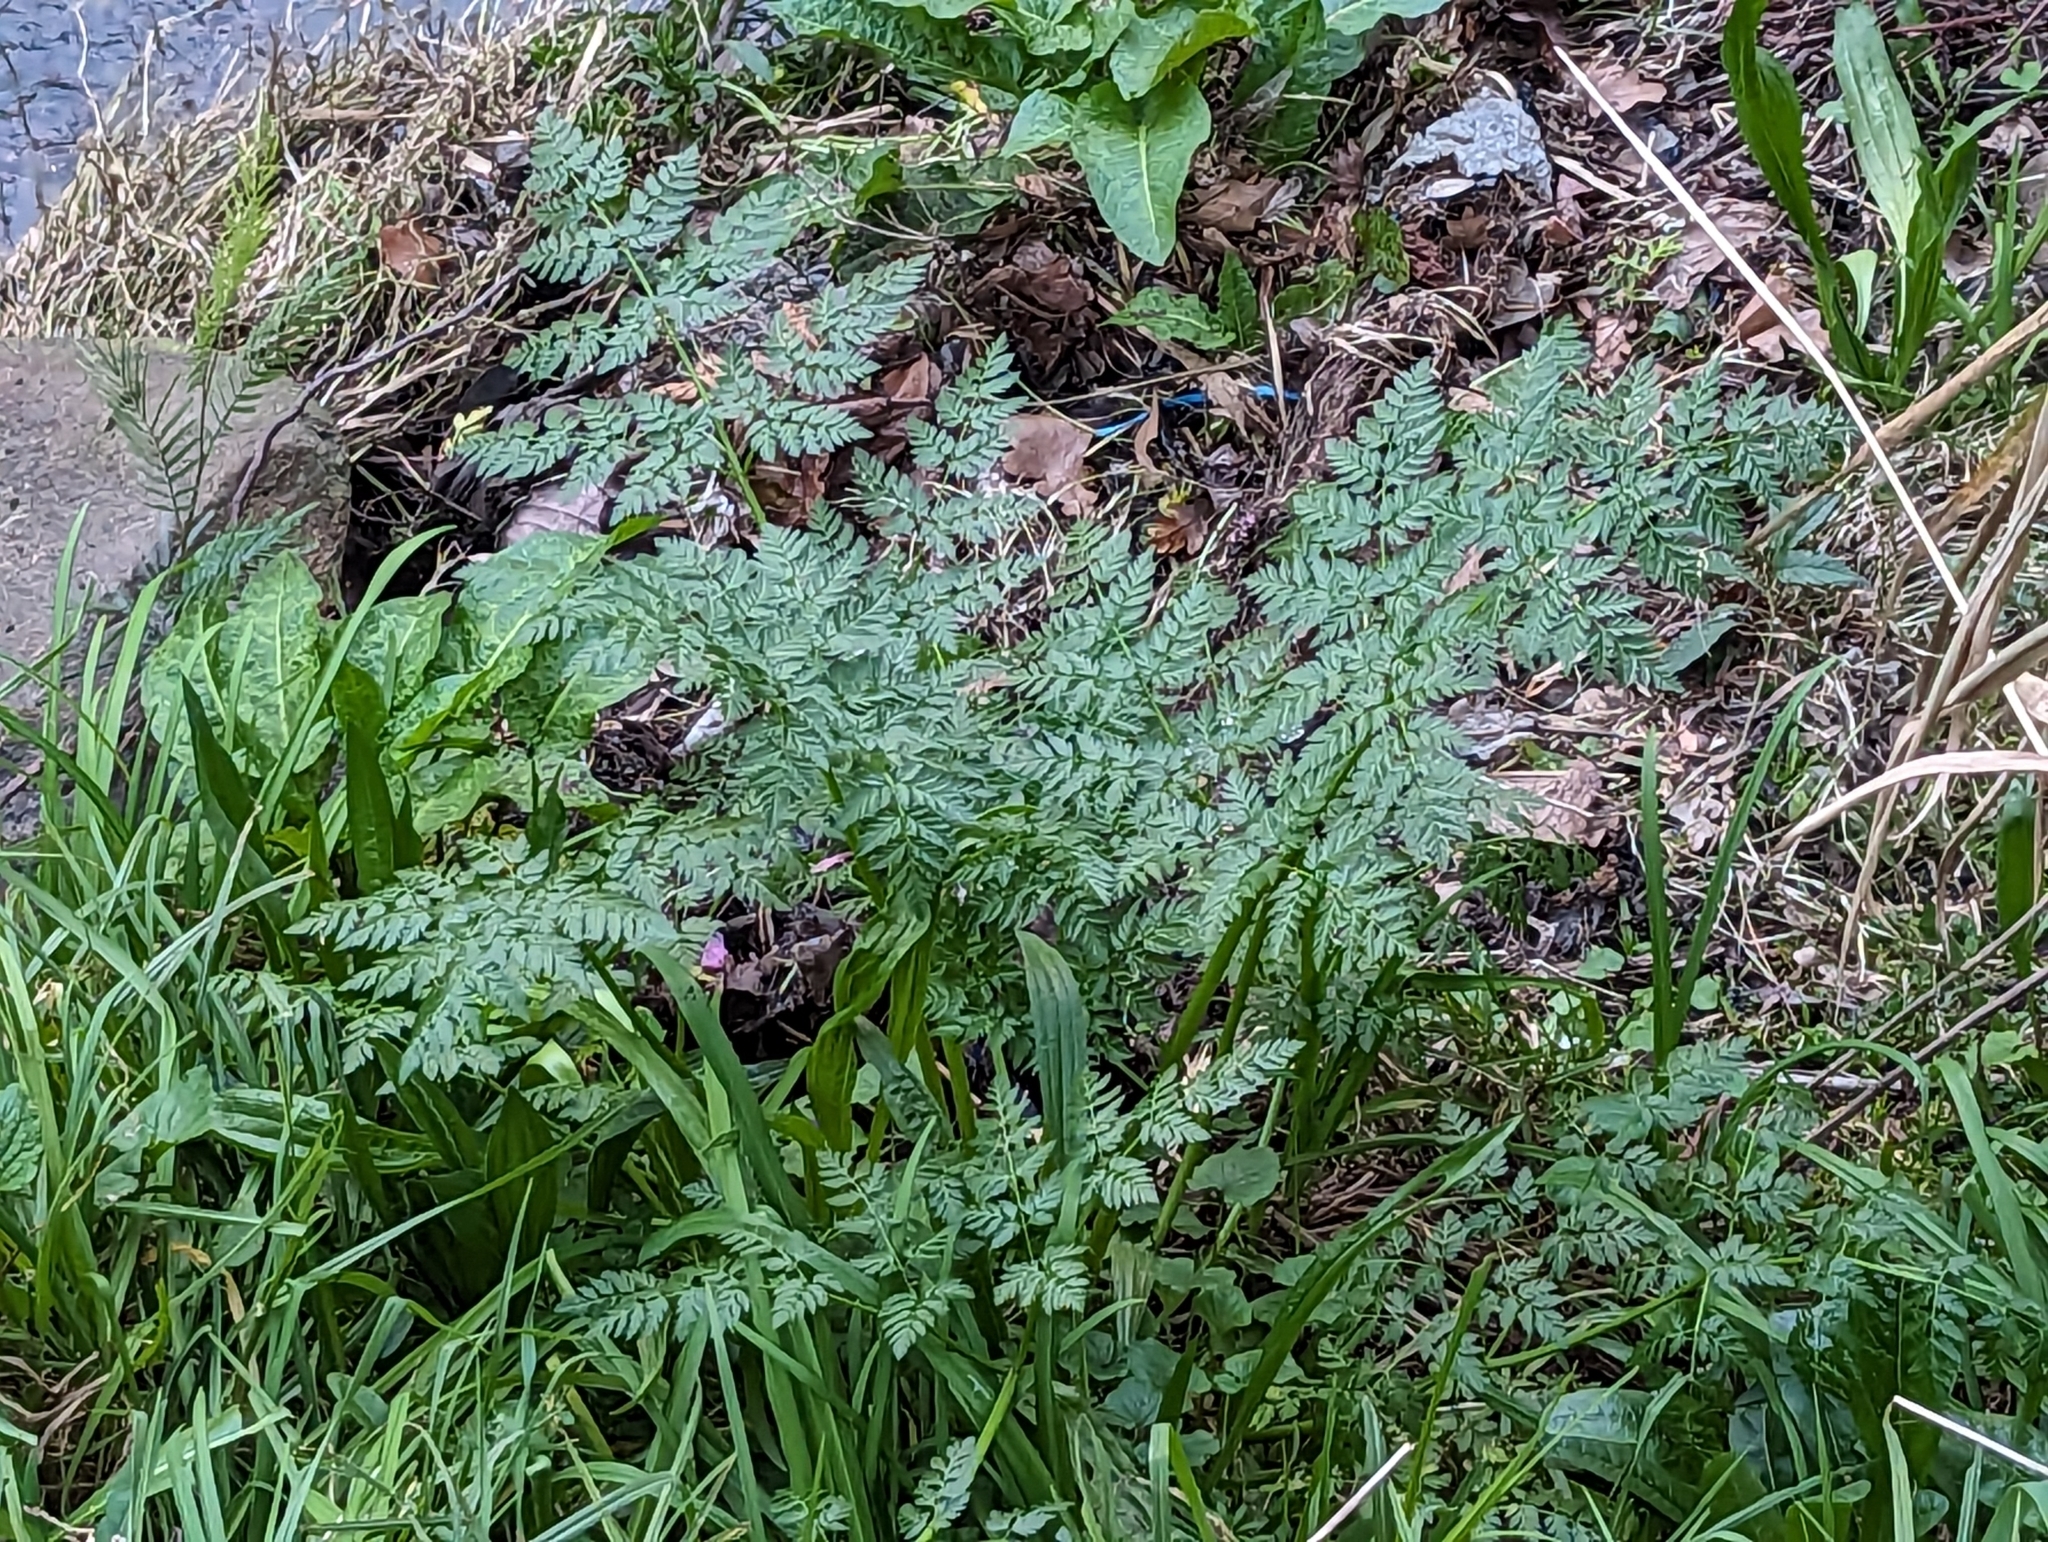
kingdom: Plantae
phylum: Tracheophyta
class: Magnoliopsida
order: Apiales
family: Apiaceae
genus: Conium
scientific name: Conium maculatum
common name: Hemlock
